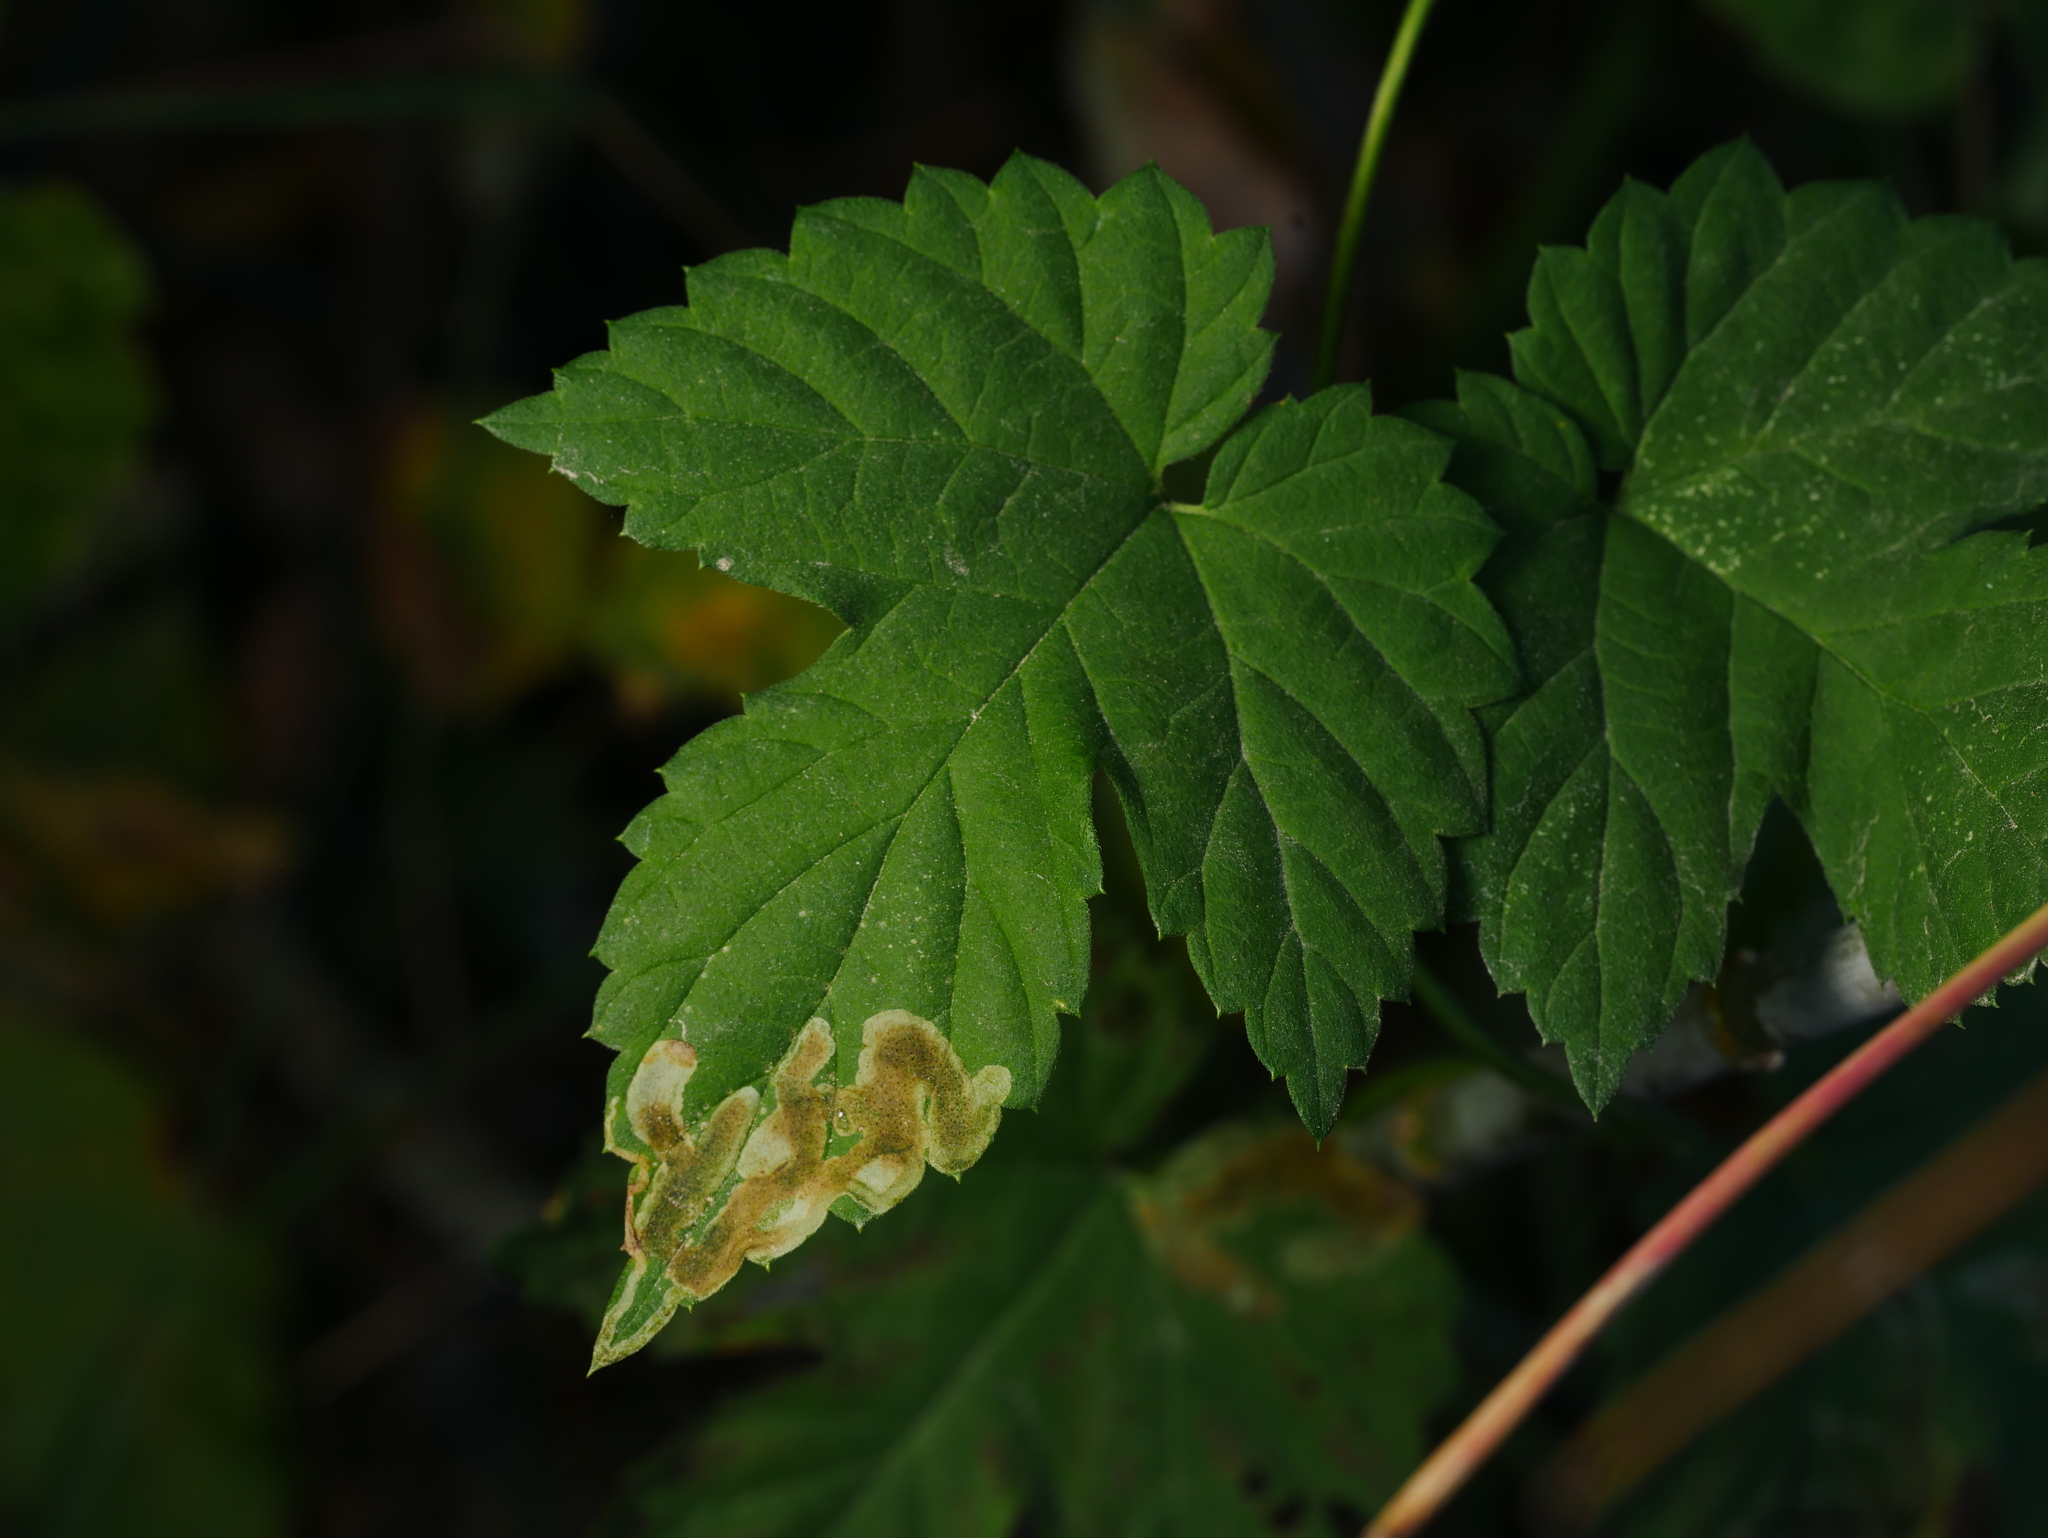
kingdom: Plantae
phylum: Tracheophyta
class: Magnoliopsida
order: Rosales
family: Cannabaceae
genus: Humulus
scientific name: Humulus lupulus
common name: Hop
